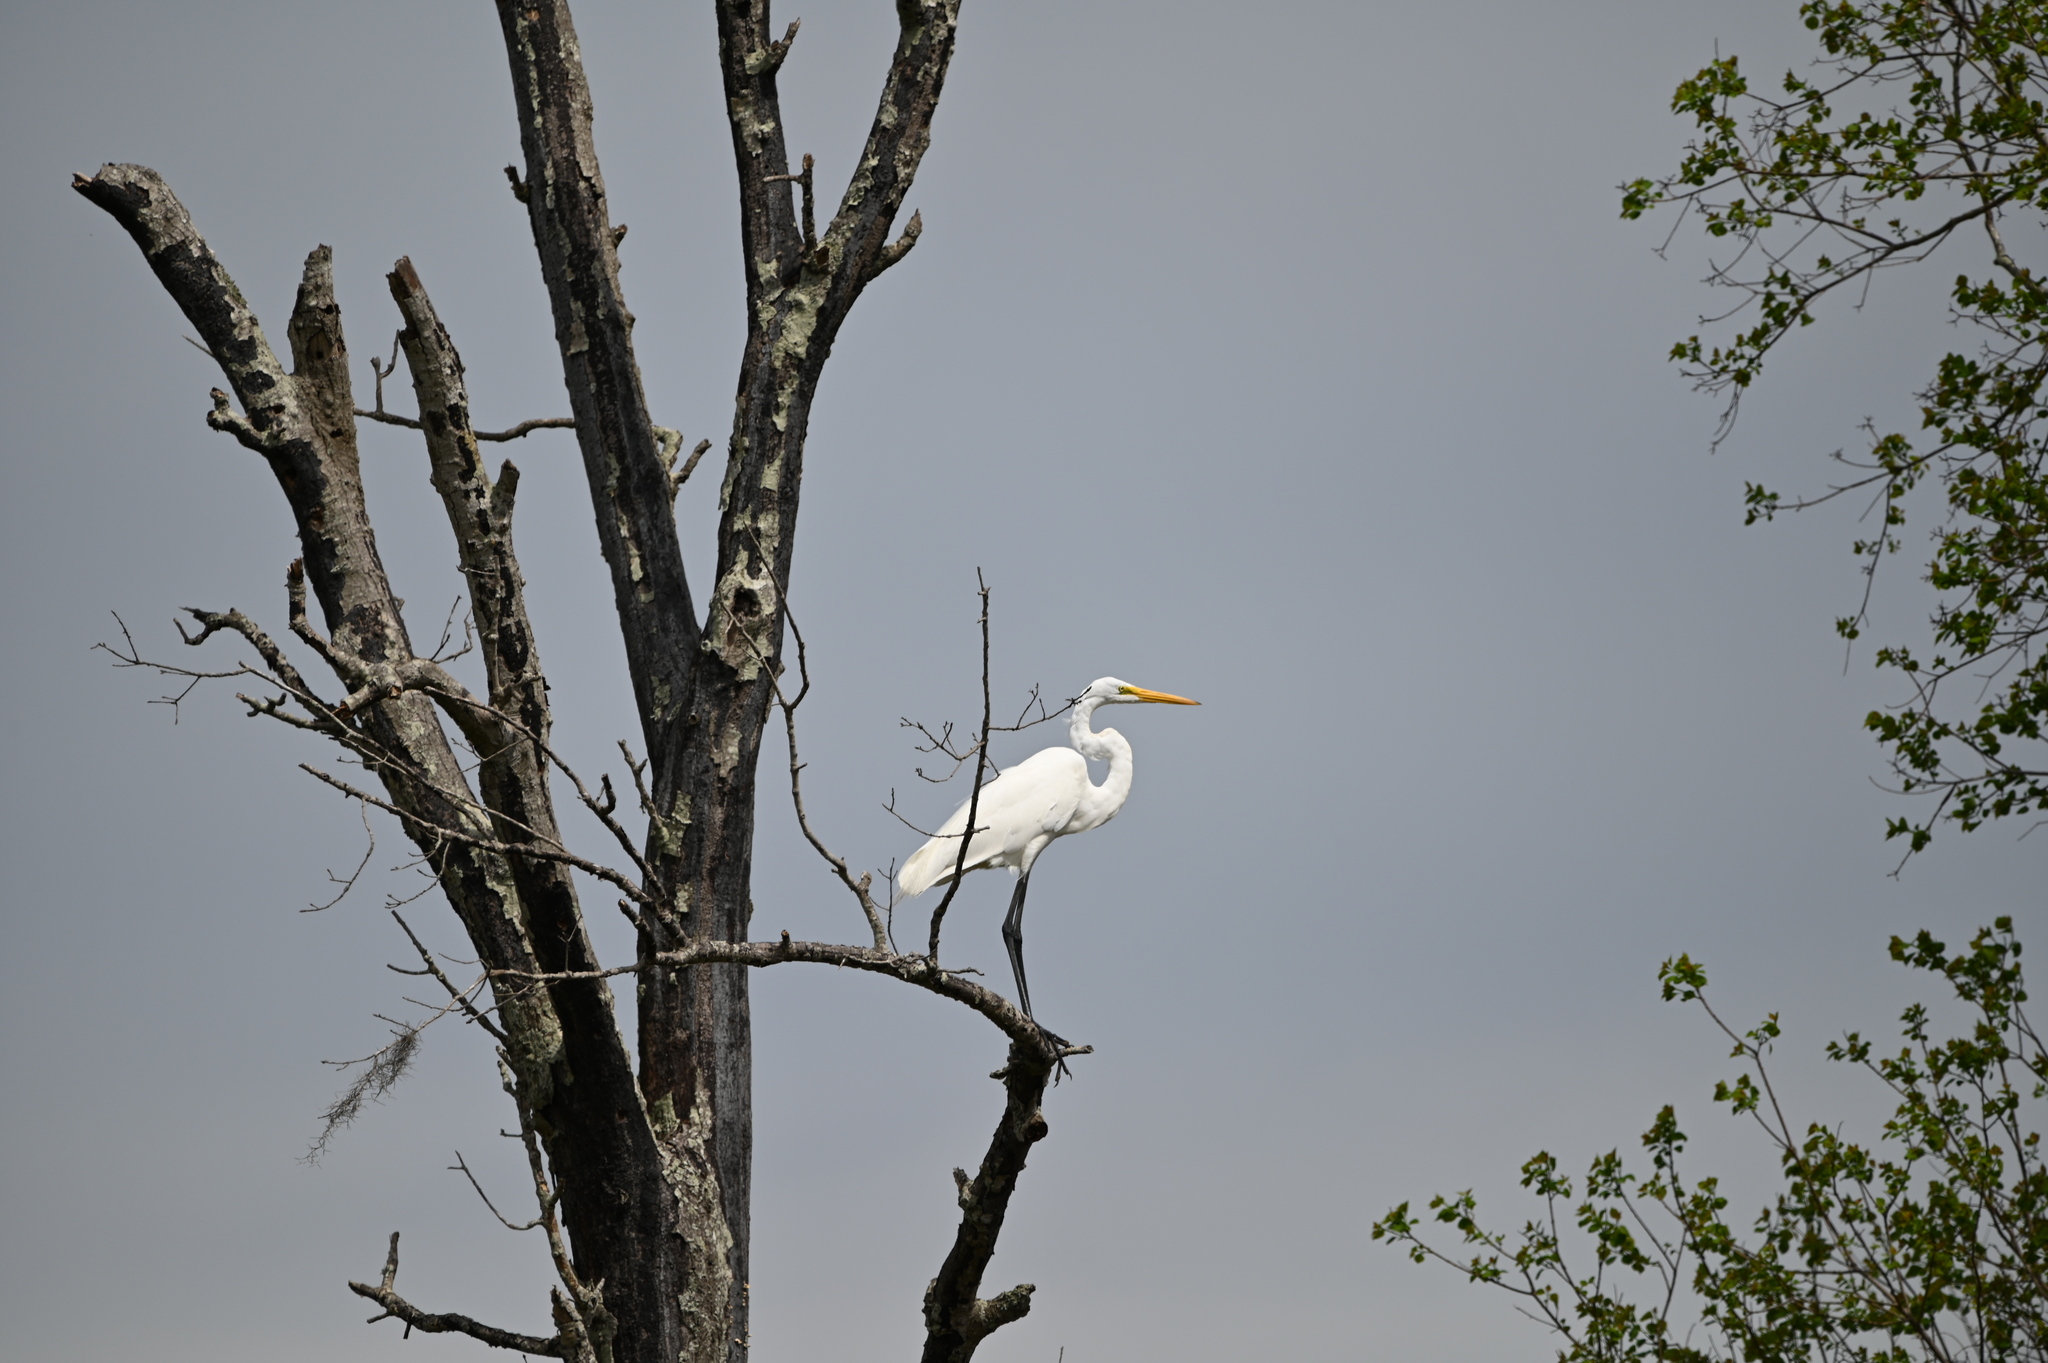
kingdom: Animalia
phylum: Chordata
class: Aves
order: Pelecaniformes
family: Ardeidae
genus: Ardea
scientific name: Ardea alba
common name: Great egret
